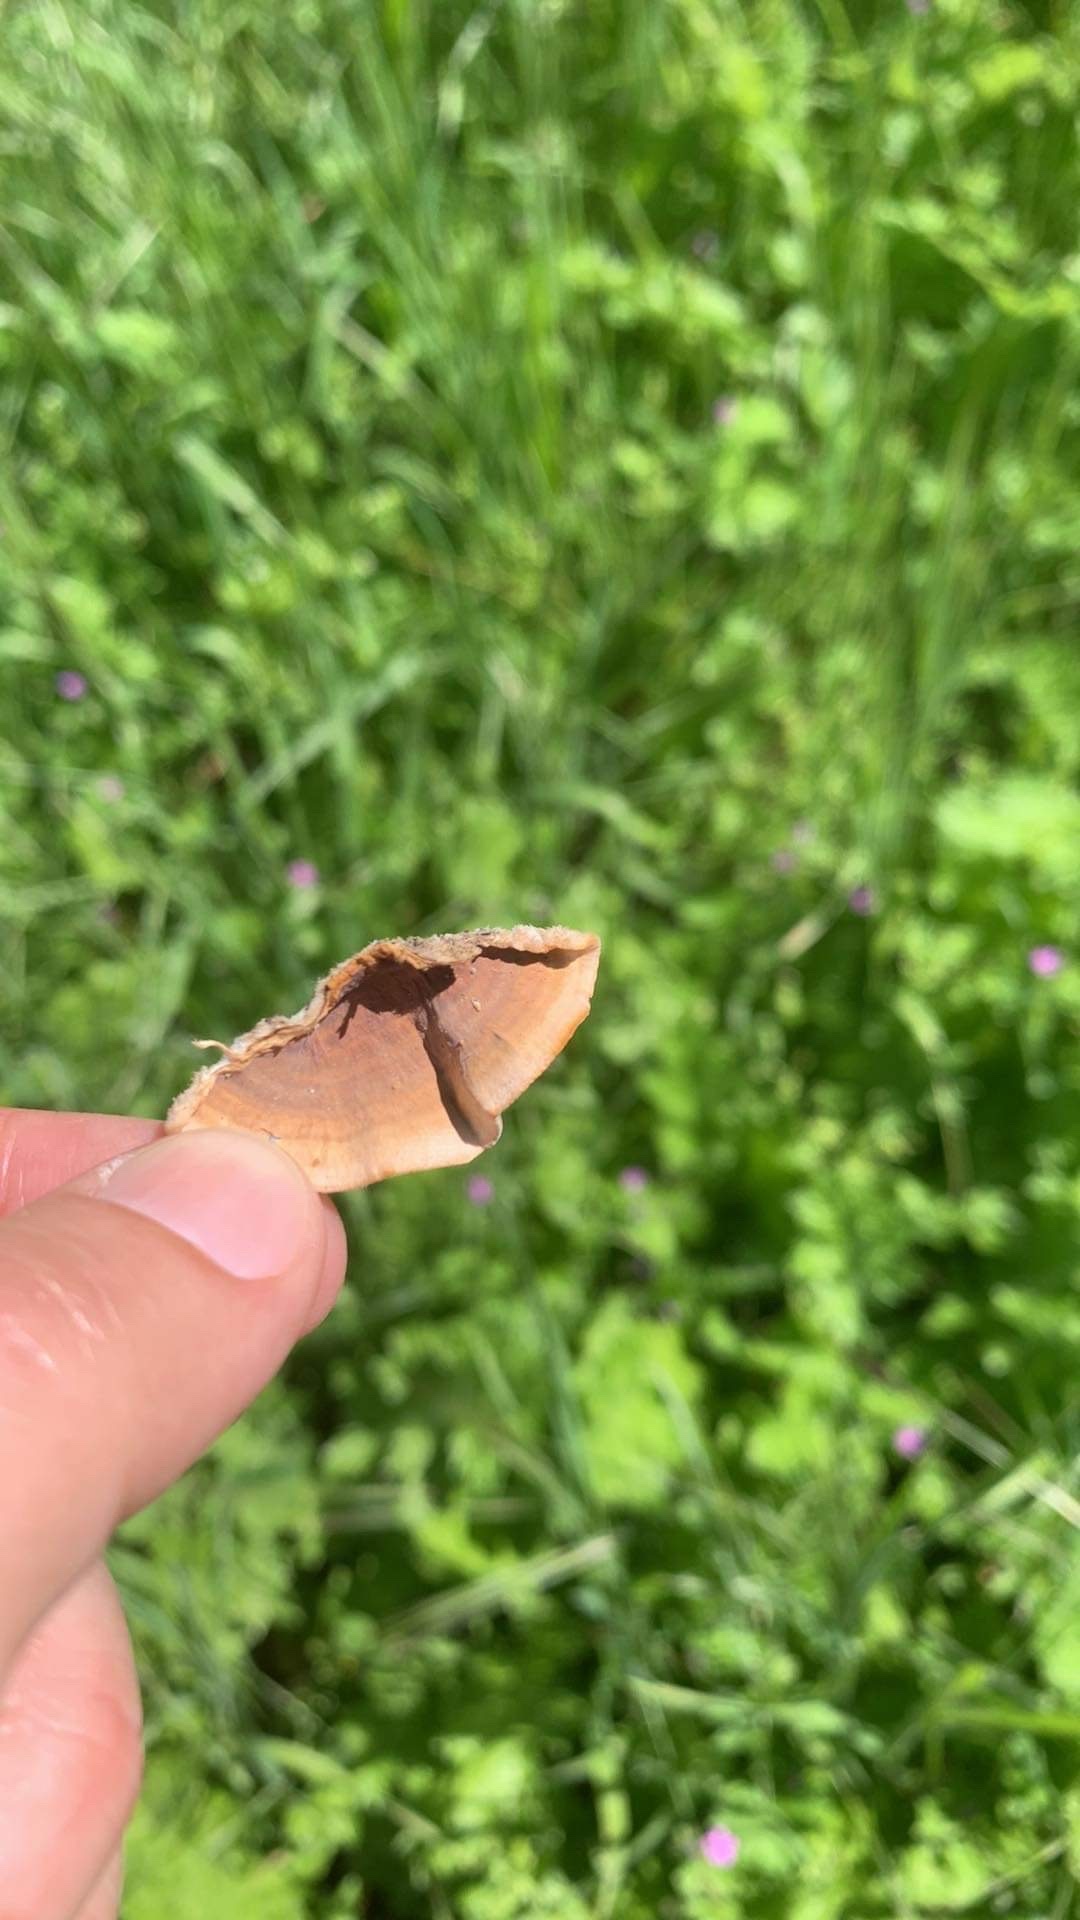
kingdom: Fungi
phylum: Basidiomycota
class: Agaricomycetes
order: Russulales
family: Stereaceae
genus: Stereum
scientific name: Stereum hirsutum
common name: Hairy curtain crust
